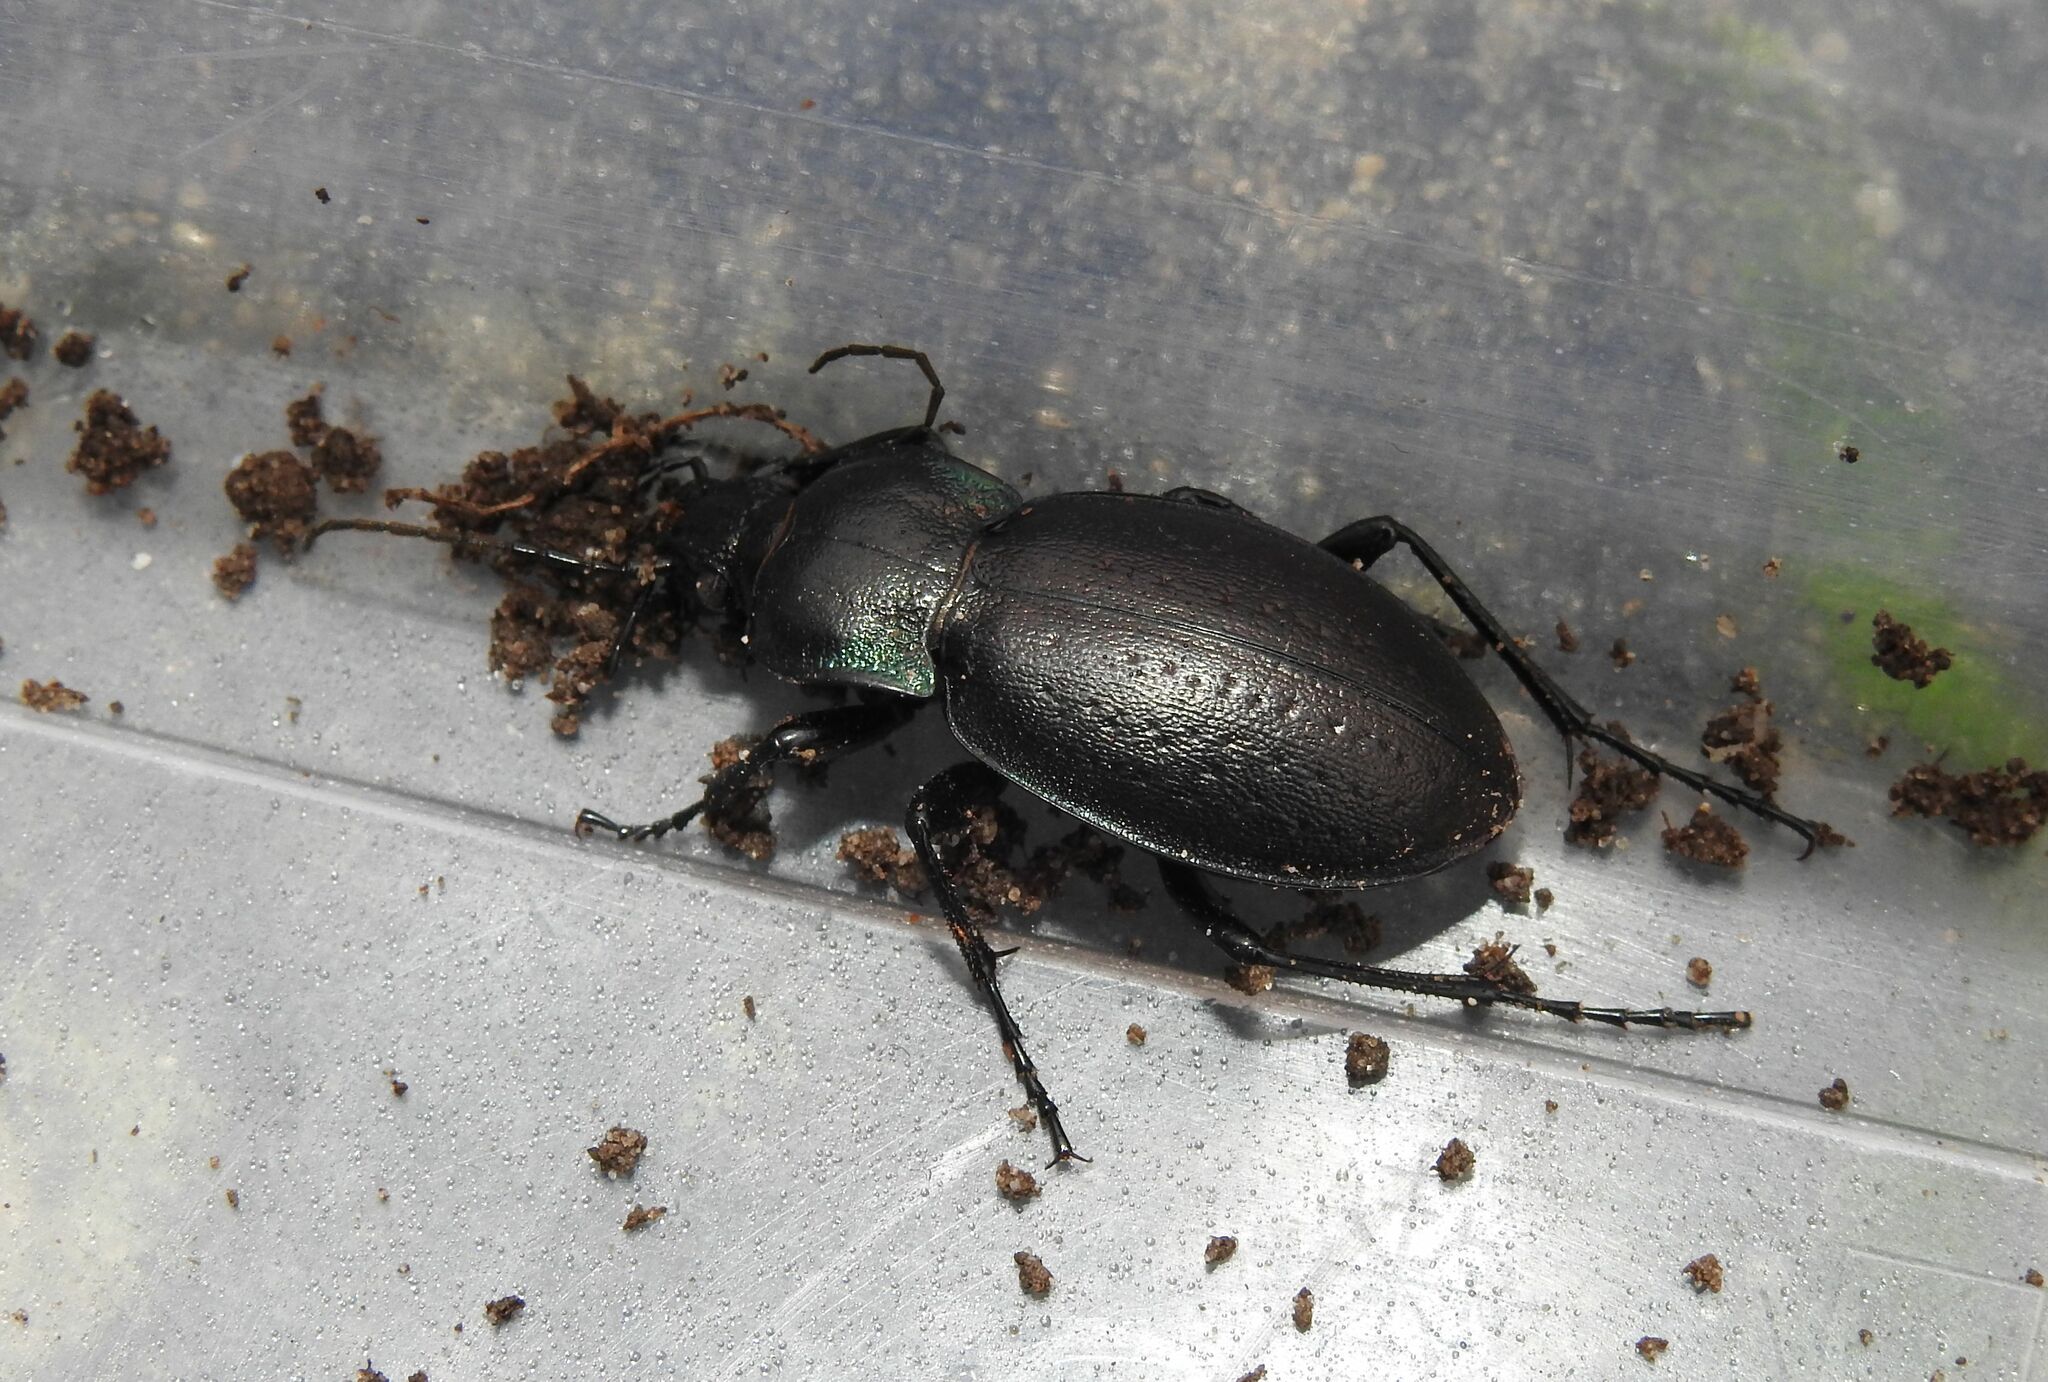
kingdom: Animalia
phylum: Arthropoda
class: Insecta
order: Coleoptera
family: Carabidae
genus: Carabus
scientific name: Carabus nemoralis
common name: European ground beetle
